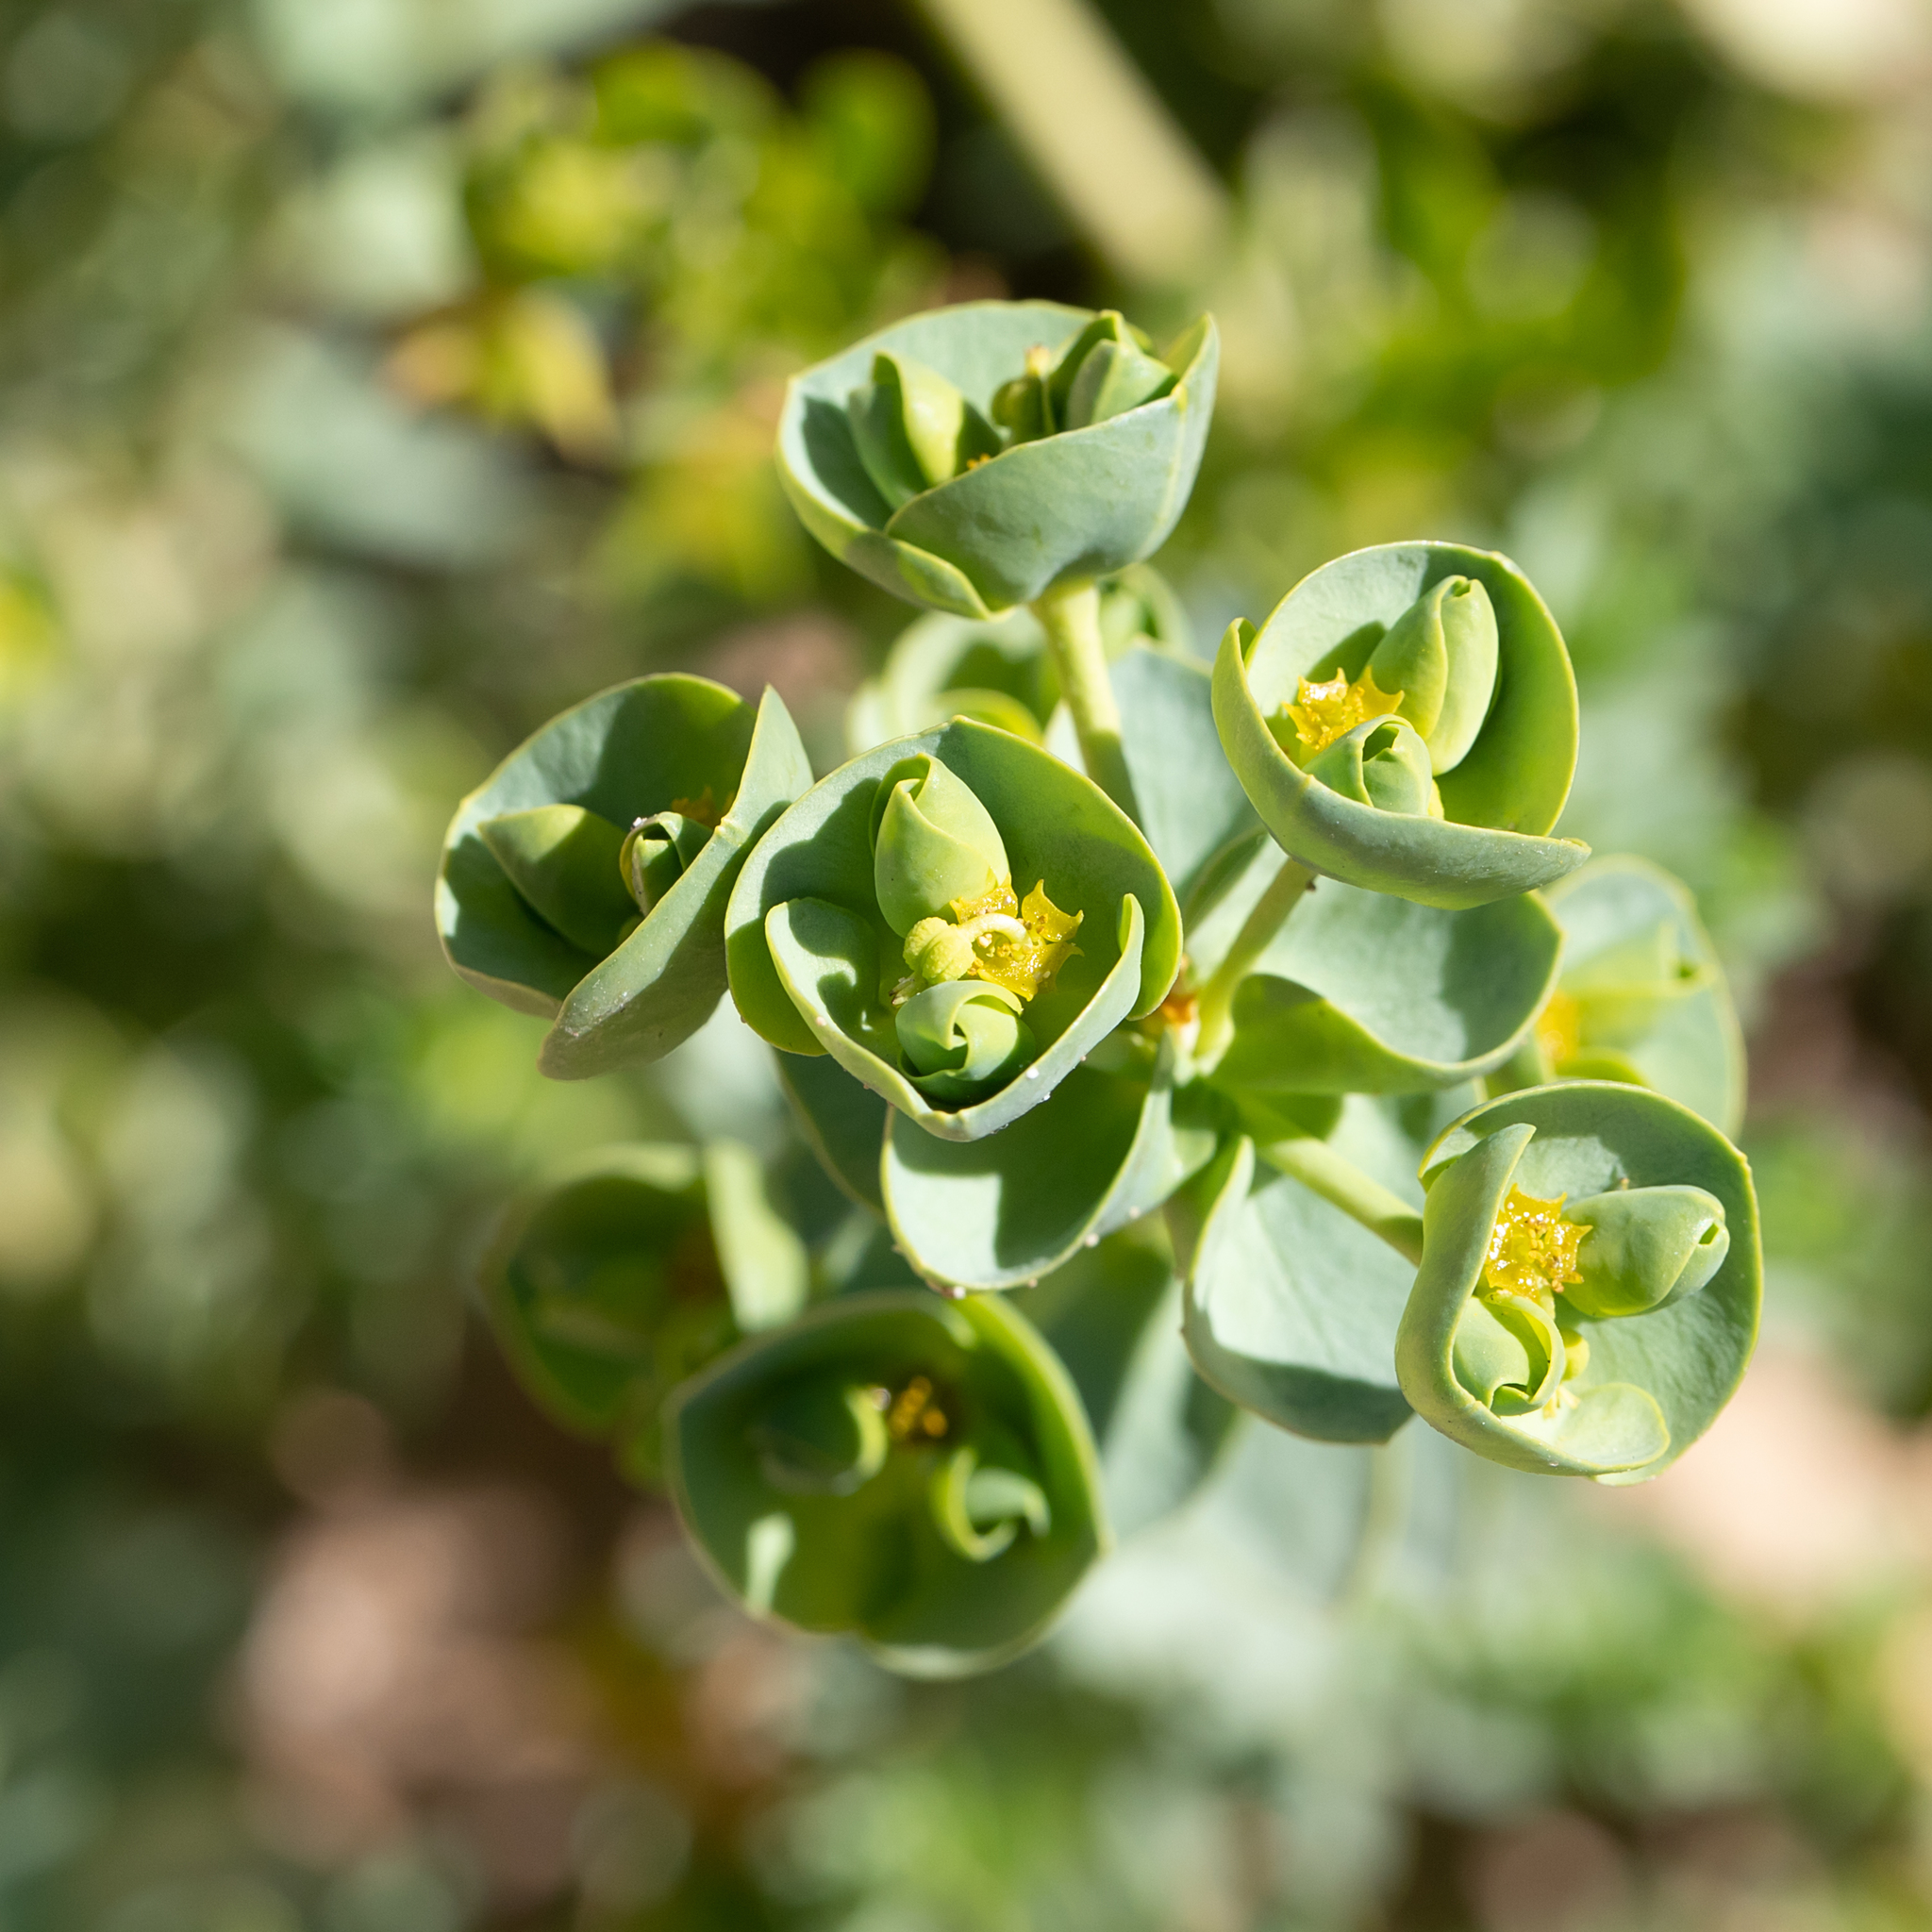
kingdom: Plantae
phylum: Tracheophyta
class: Magnoliopsida
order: Malpighiales
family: Euphorbiaceae
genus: Euphorbia
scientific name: Euphorbia paralias
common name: Sea spurge
